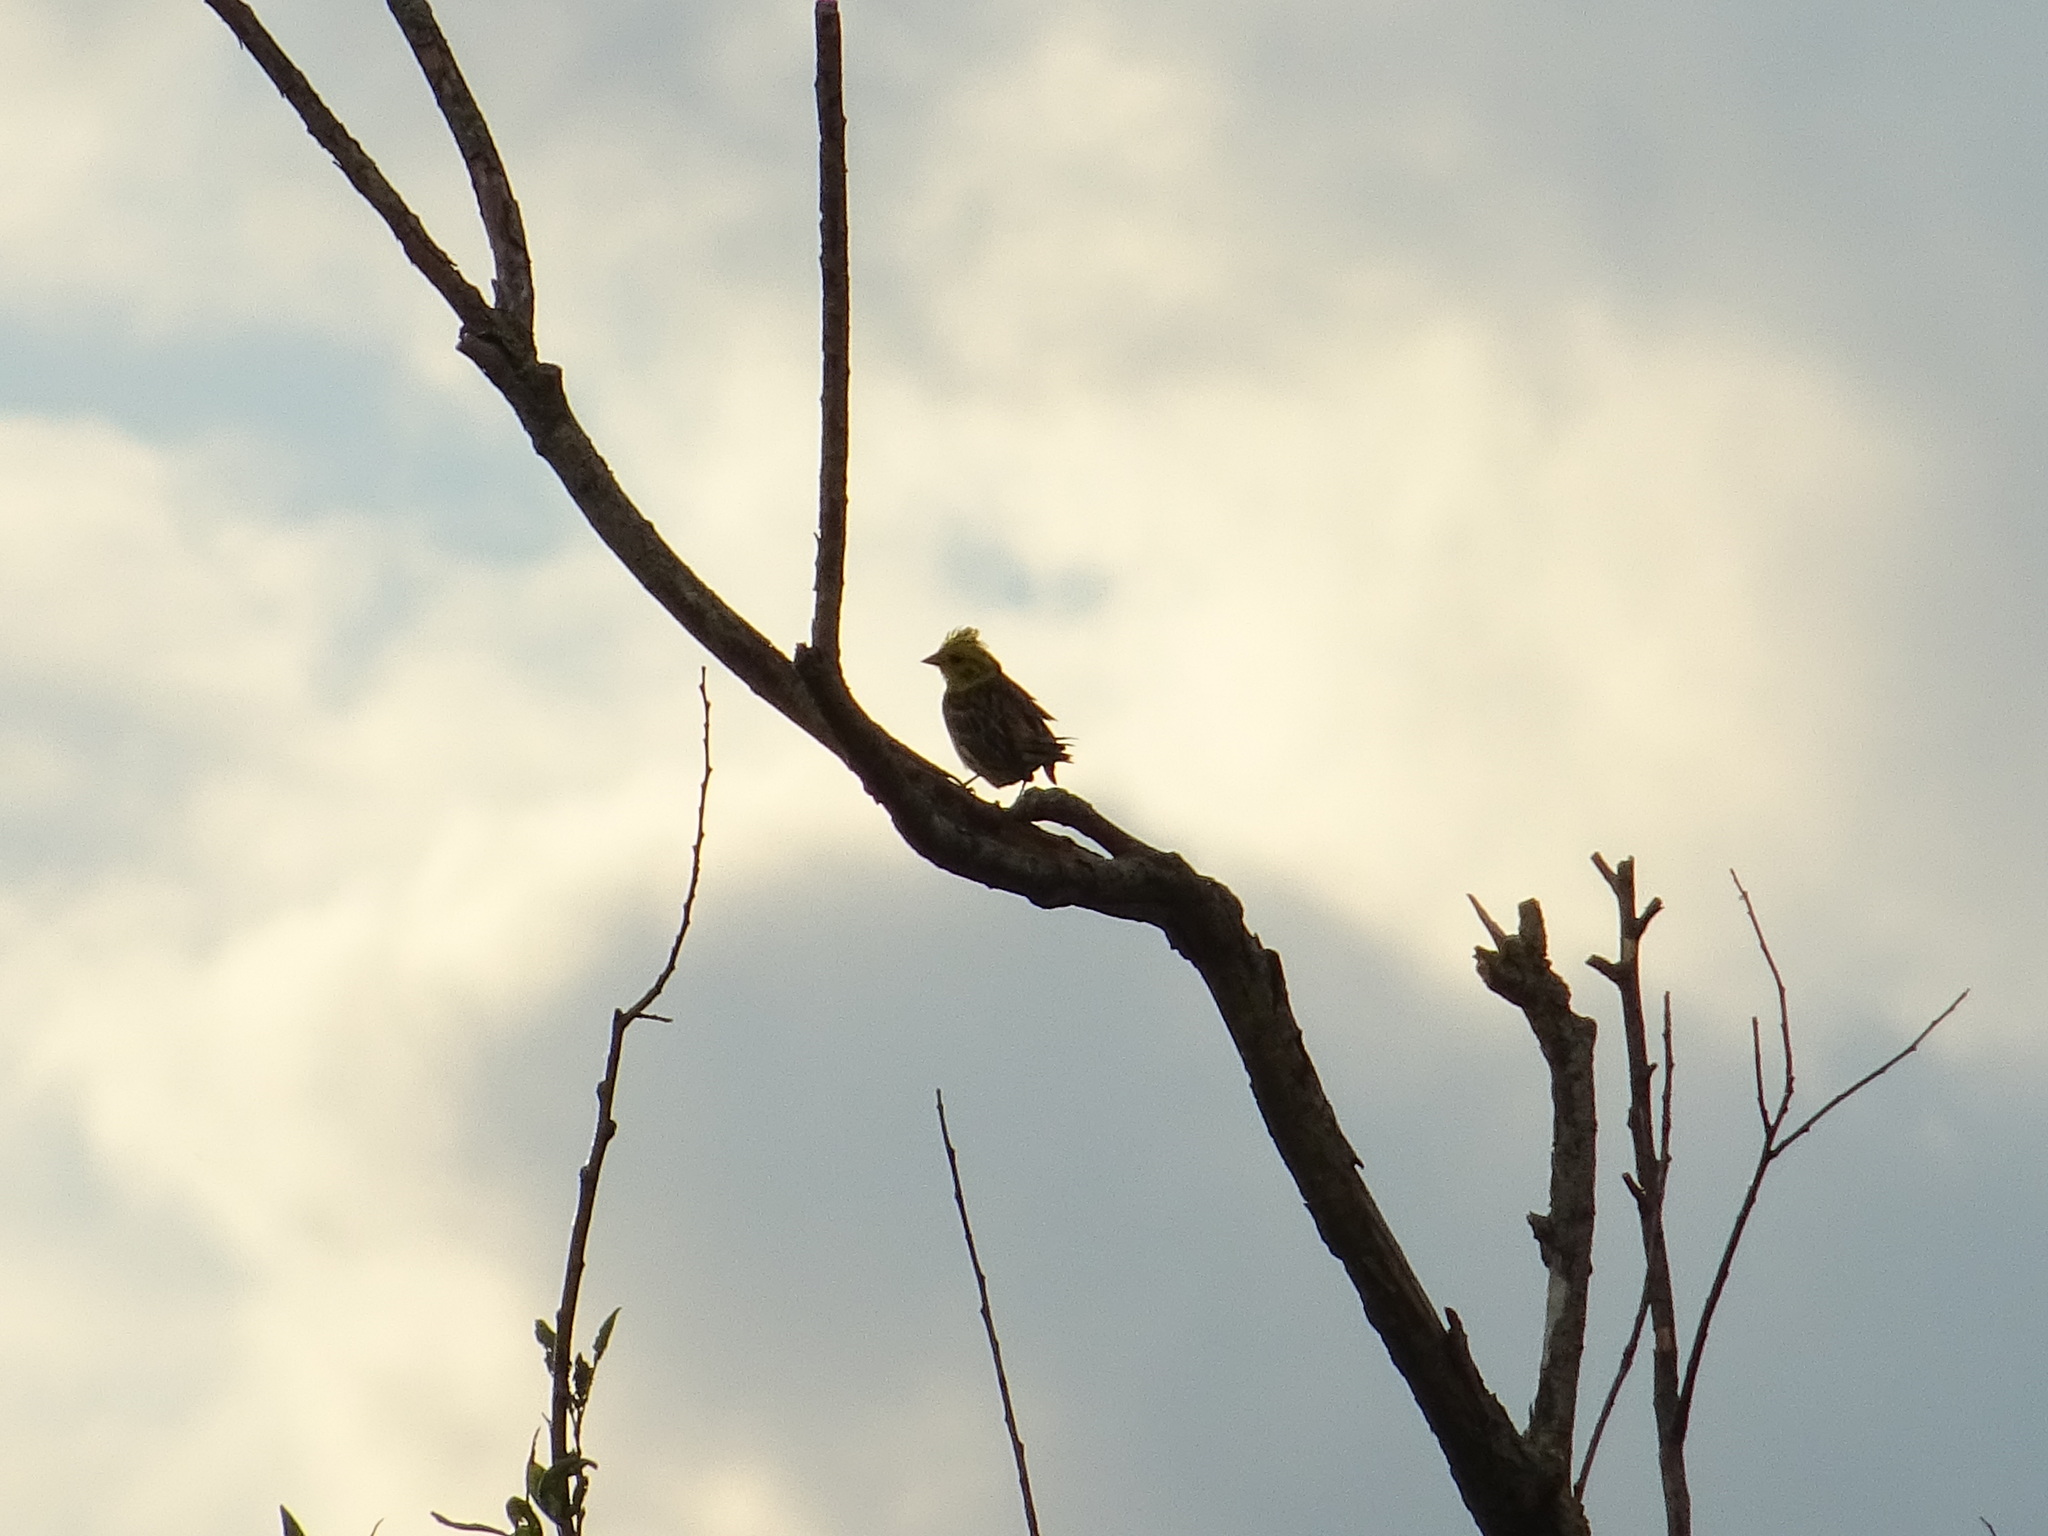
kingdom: Animalia
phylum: Chordata
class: Aves
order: Passeriformes
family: Emberizidae
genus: Emberiza
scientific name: Emberiza citrinella
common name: Yellowhammer
